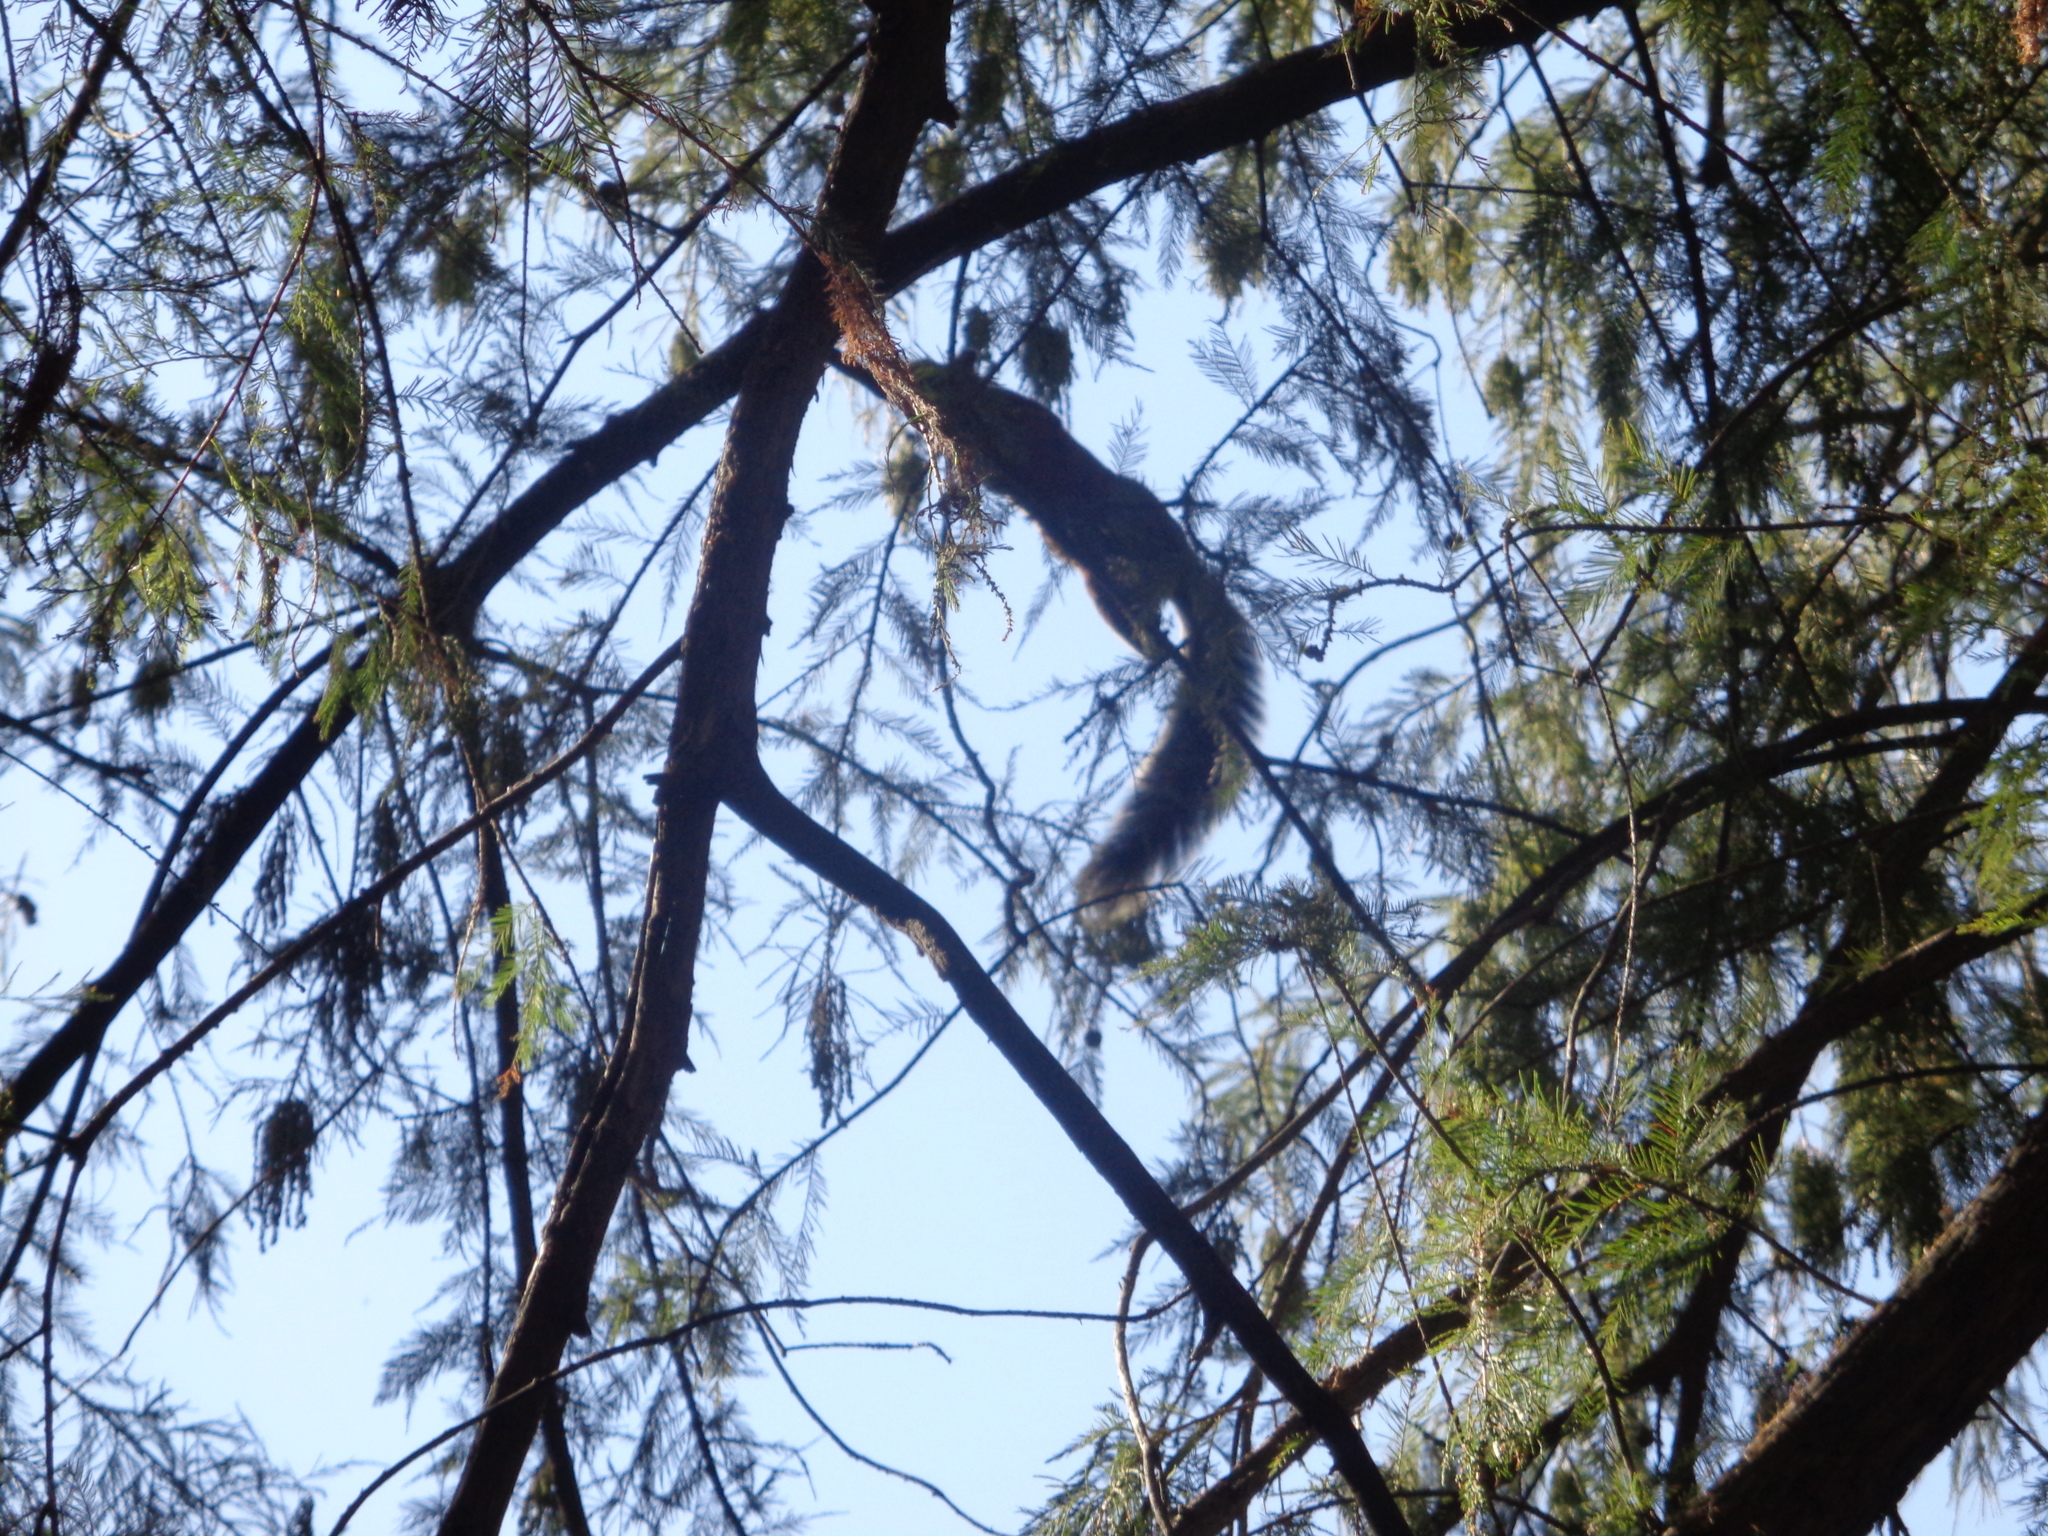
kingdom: Animalia
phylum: Chordata
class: Mammalia
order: Rodentia
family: Sciuridae
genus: Sciurus
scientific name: Sciurus aureogaster
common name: Red-bellied squirrel
